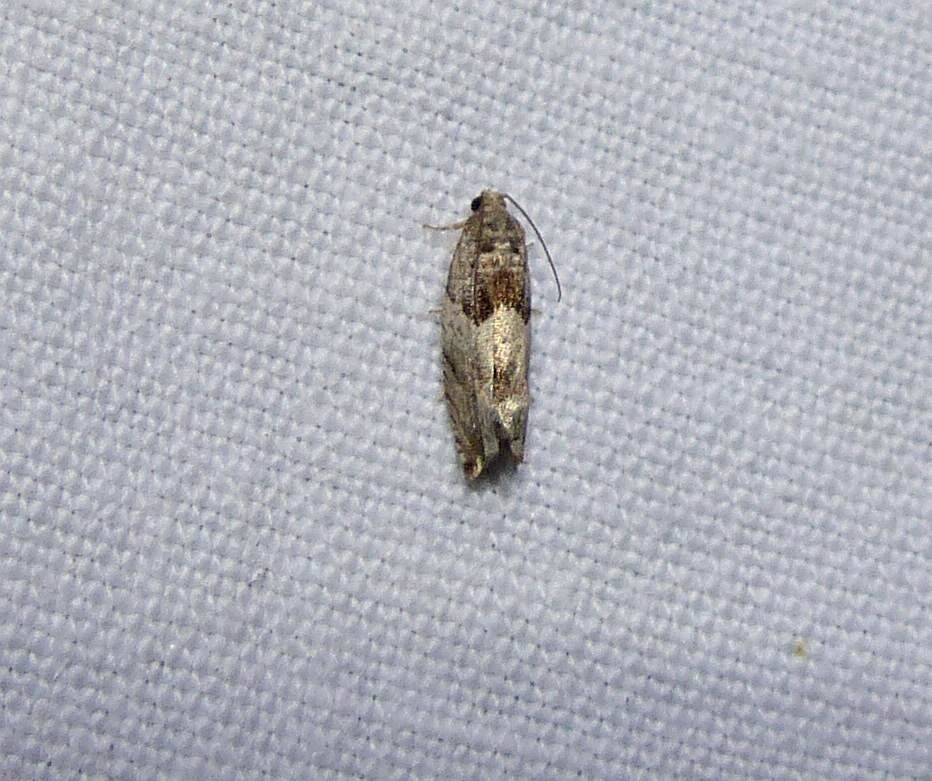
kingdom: Animalia
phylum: Arthropoda
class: Insecta
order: Lepidoptera
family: Tortricidae
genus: Gypsonoma
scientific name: Gypsonoma haimbachiana
